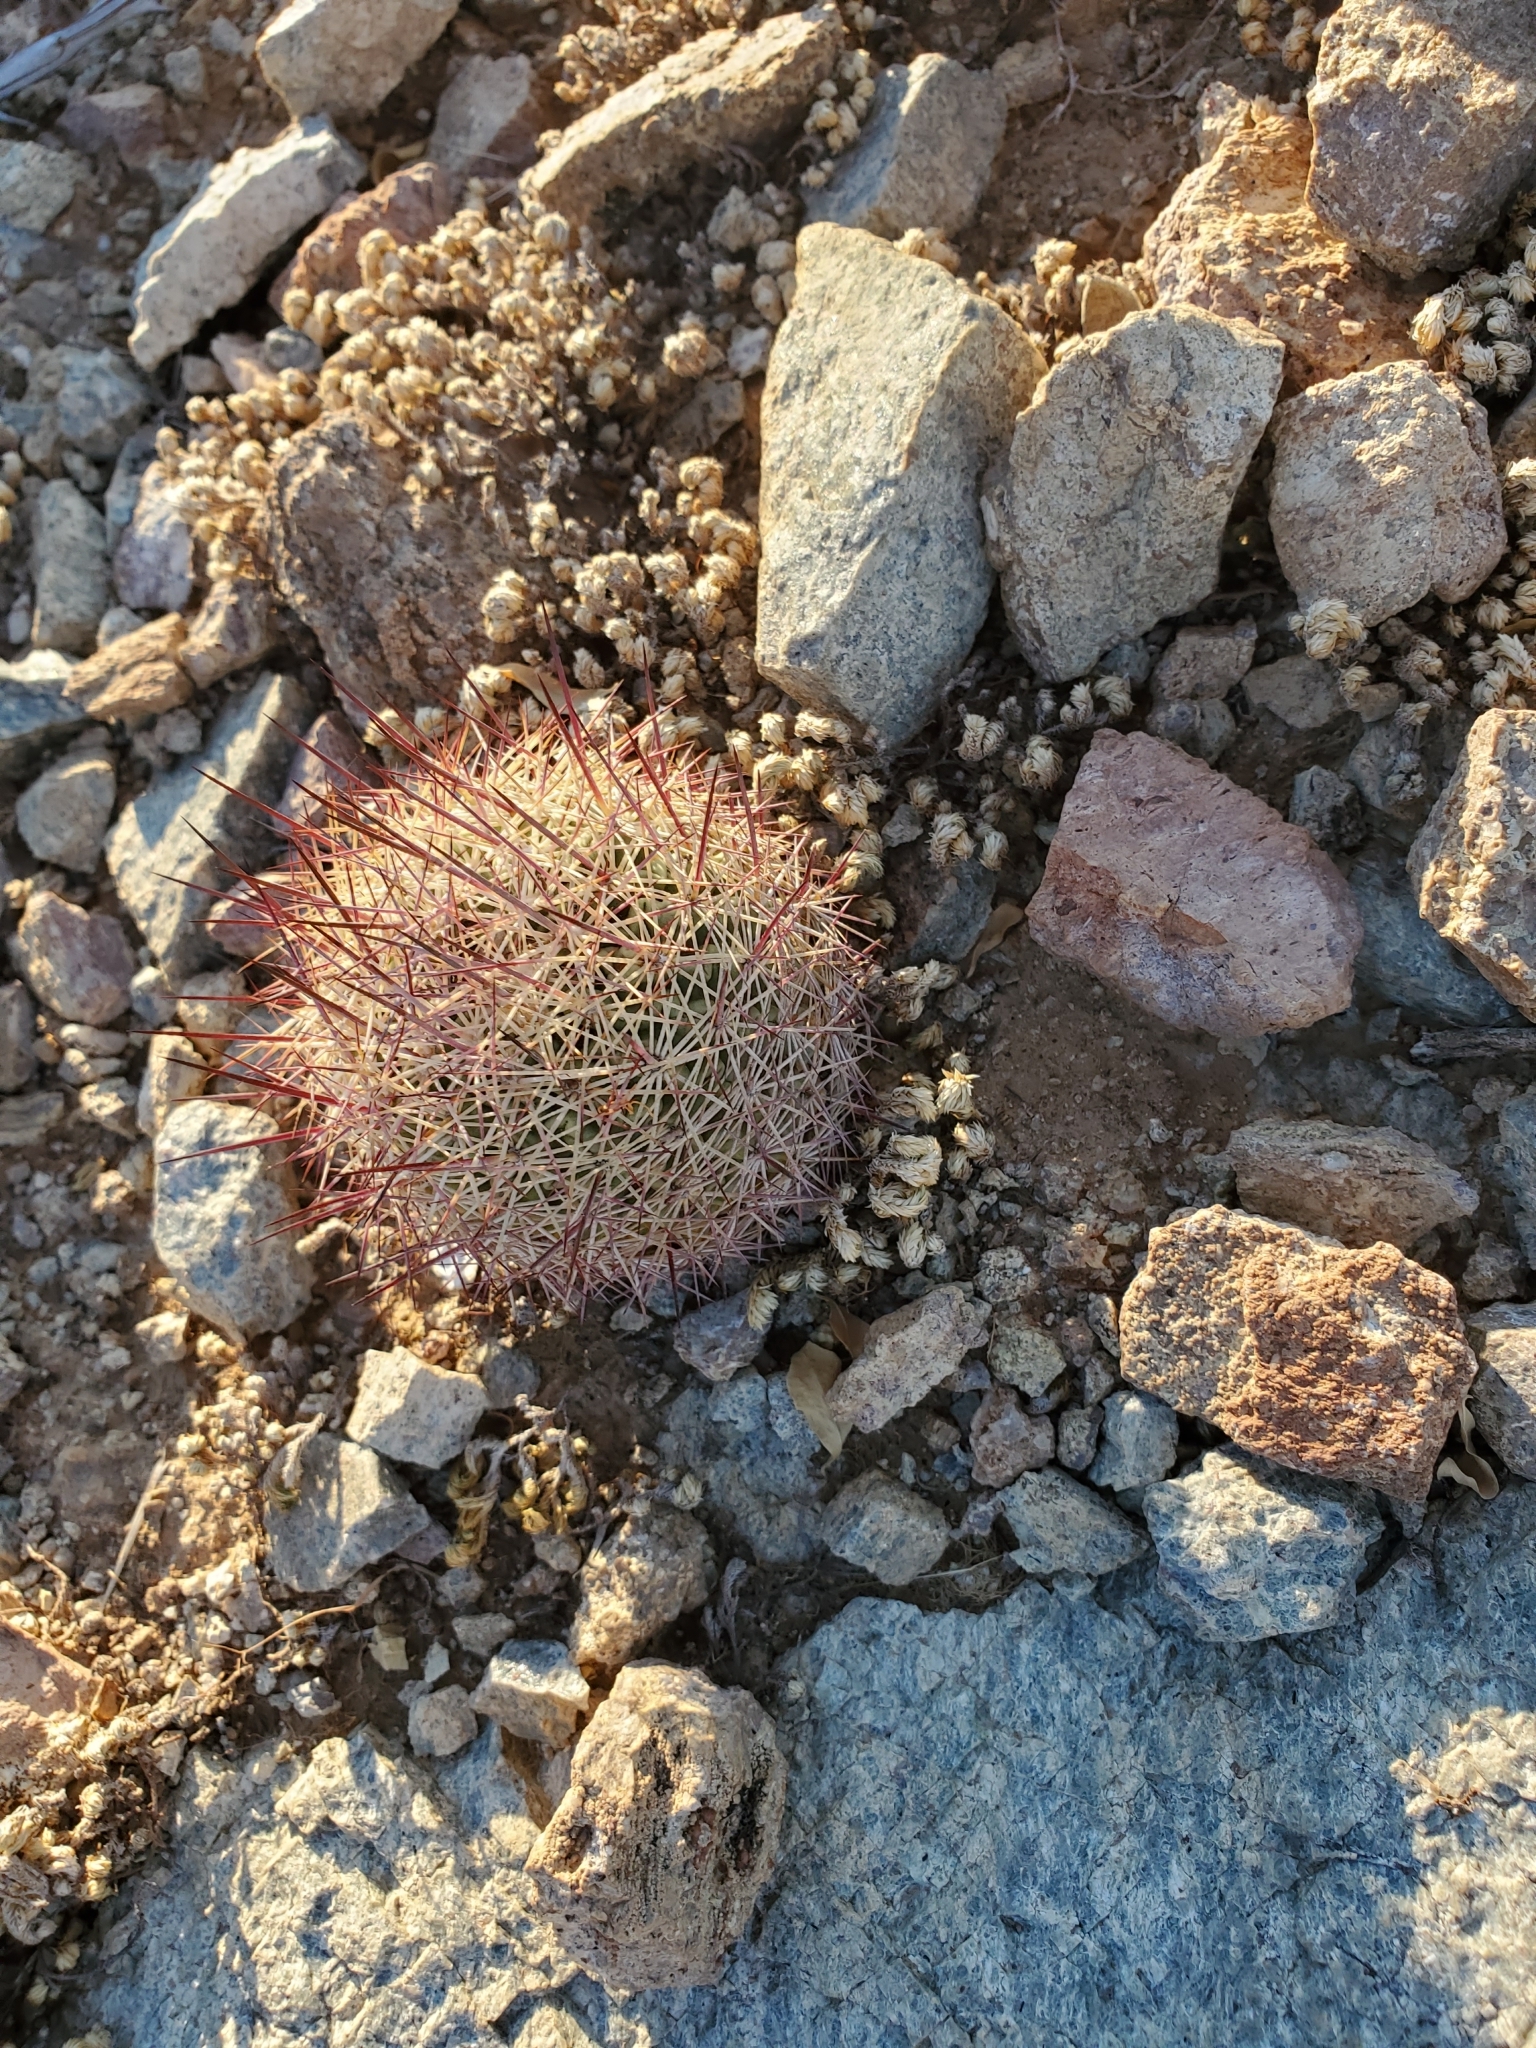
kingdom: Plantae
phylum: Tracheophyta
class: Magnoliopsida
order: Caryophyllales
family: Cactaceae
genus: Sclerocactus
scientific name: Sclerocactus johnsonii
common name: Eight-spine fishhook cactus
